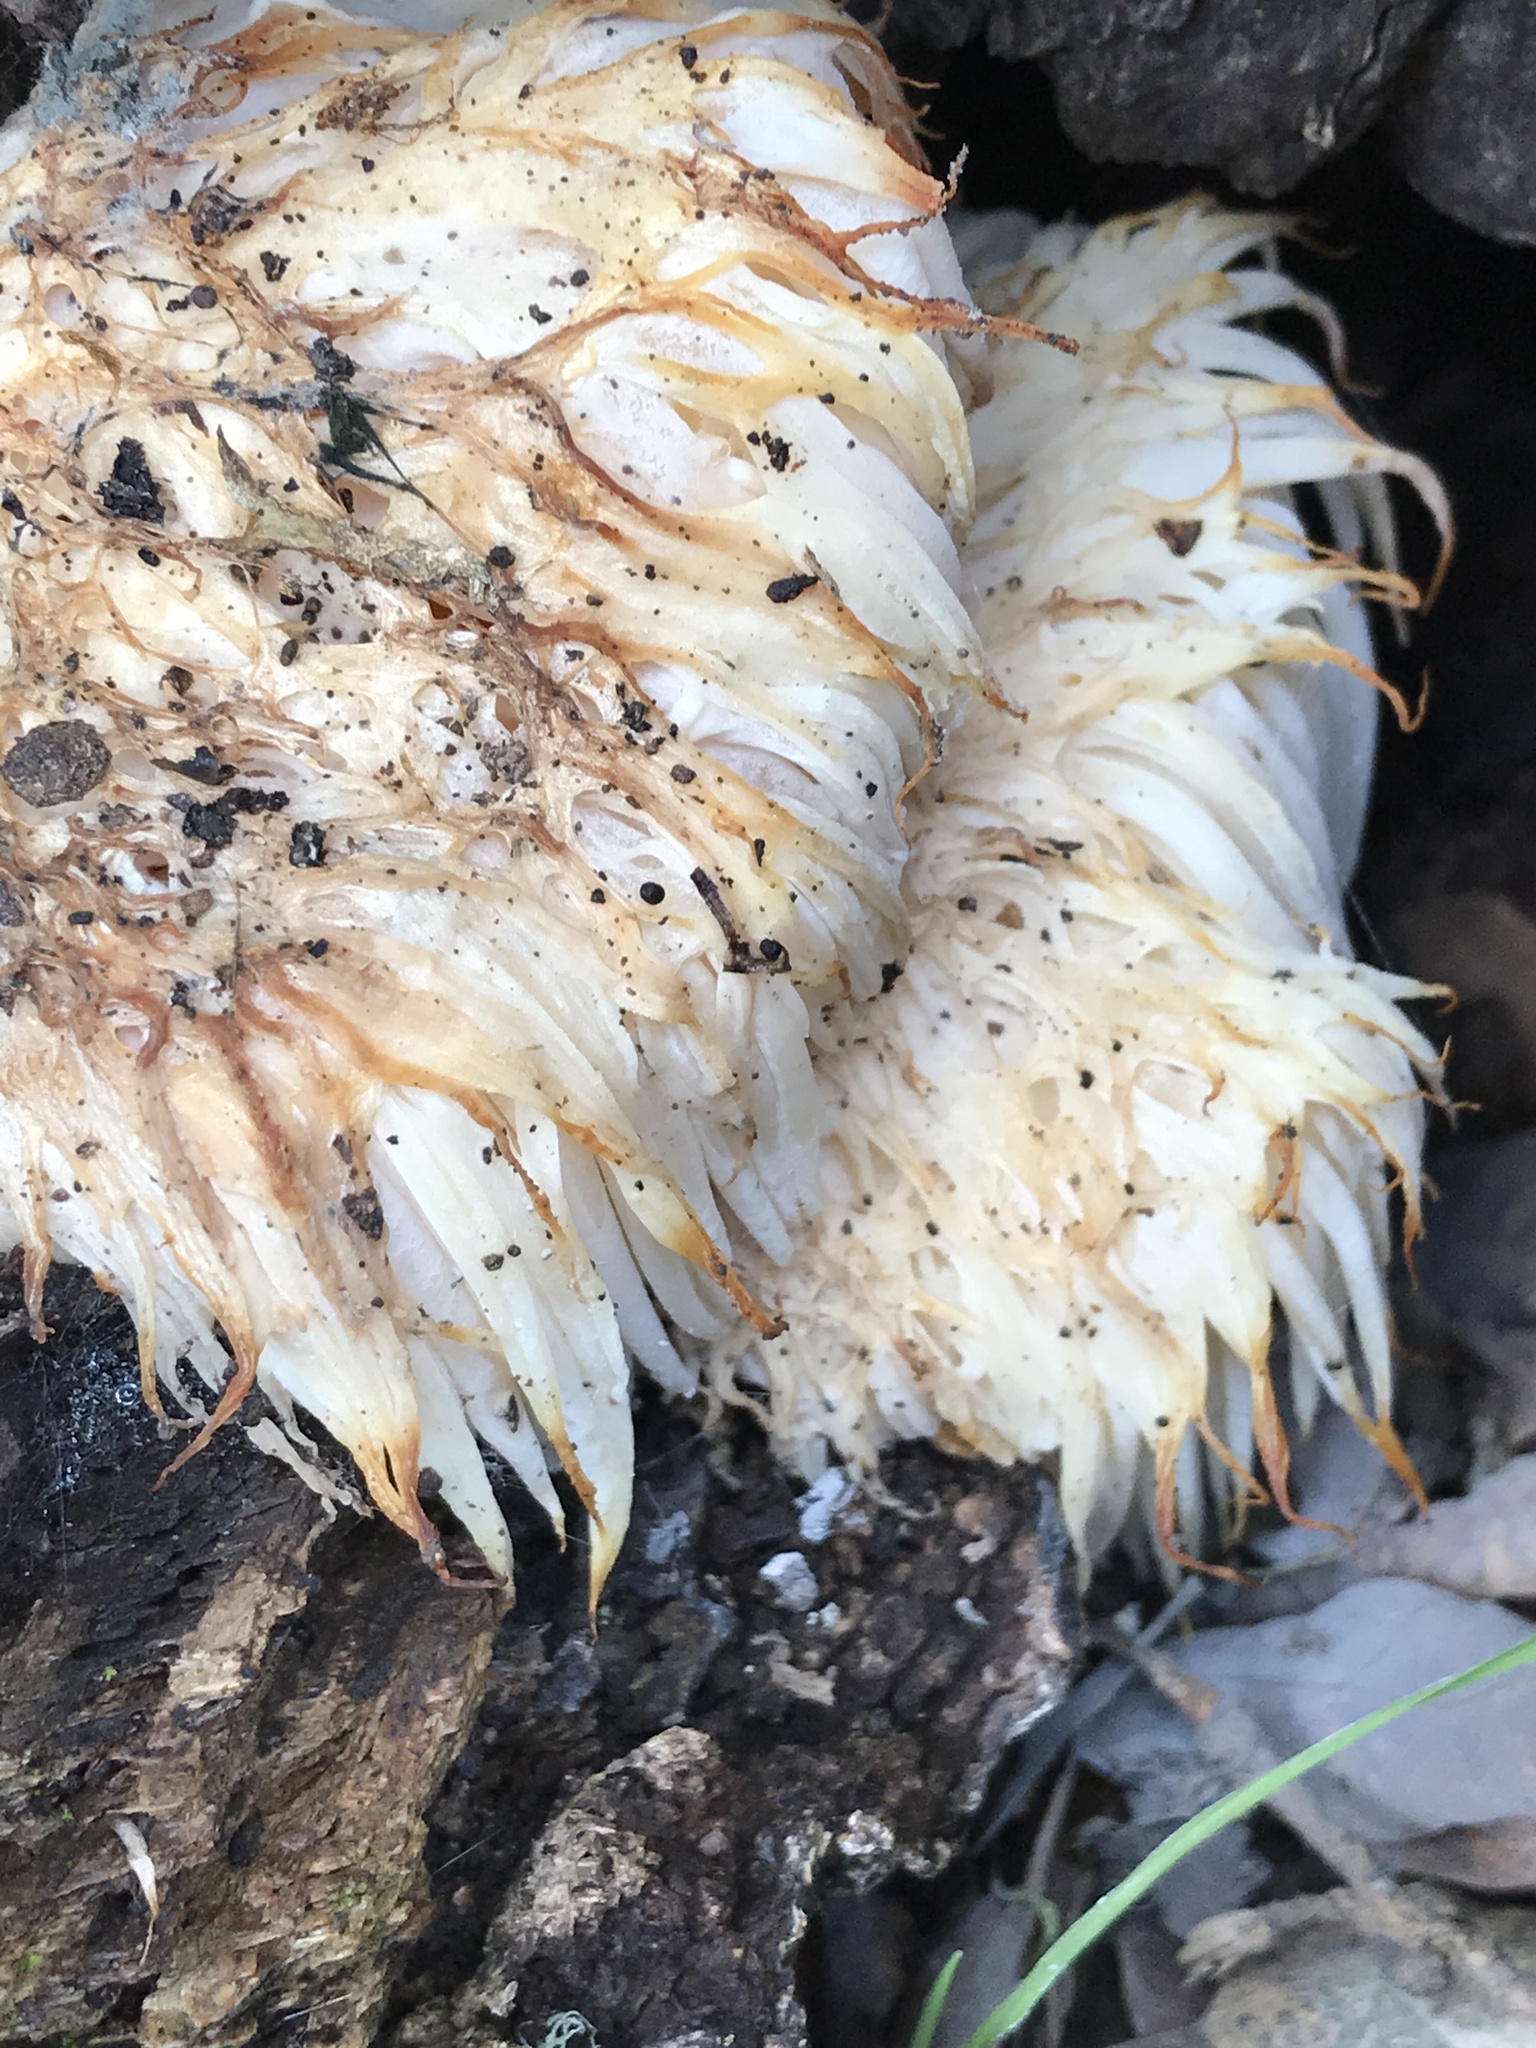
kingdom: Fungi
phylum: Basidiomycota
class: Agaricomycetes
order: Russulales
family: Hericiaceae
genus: Hericium
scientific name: Hericium erinaceus
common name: Bearded tooth
